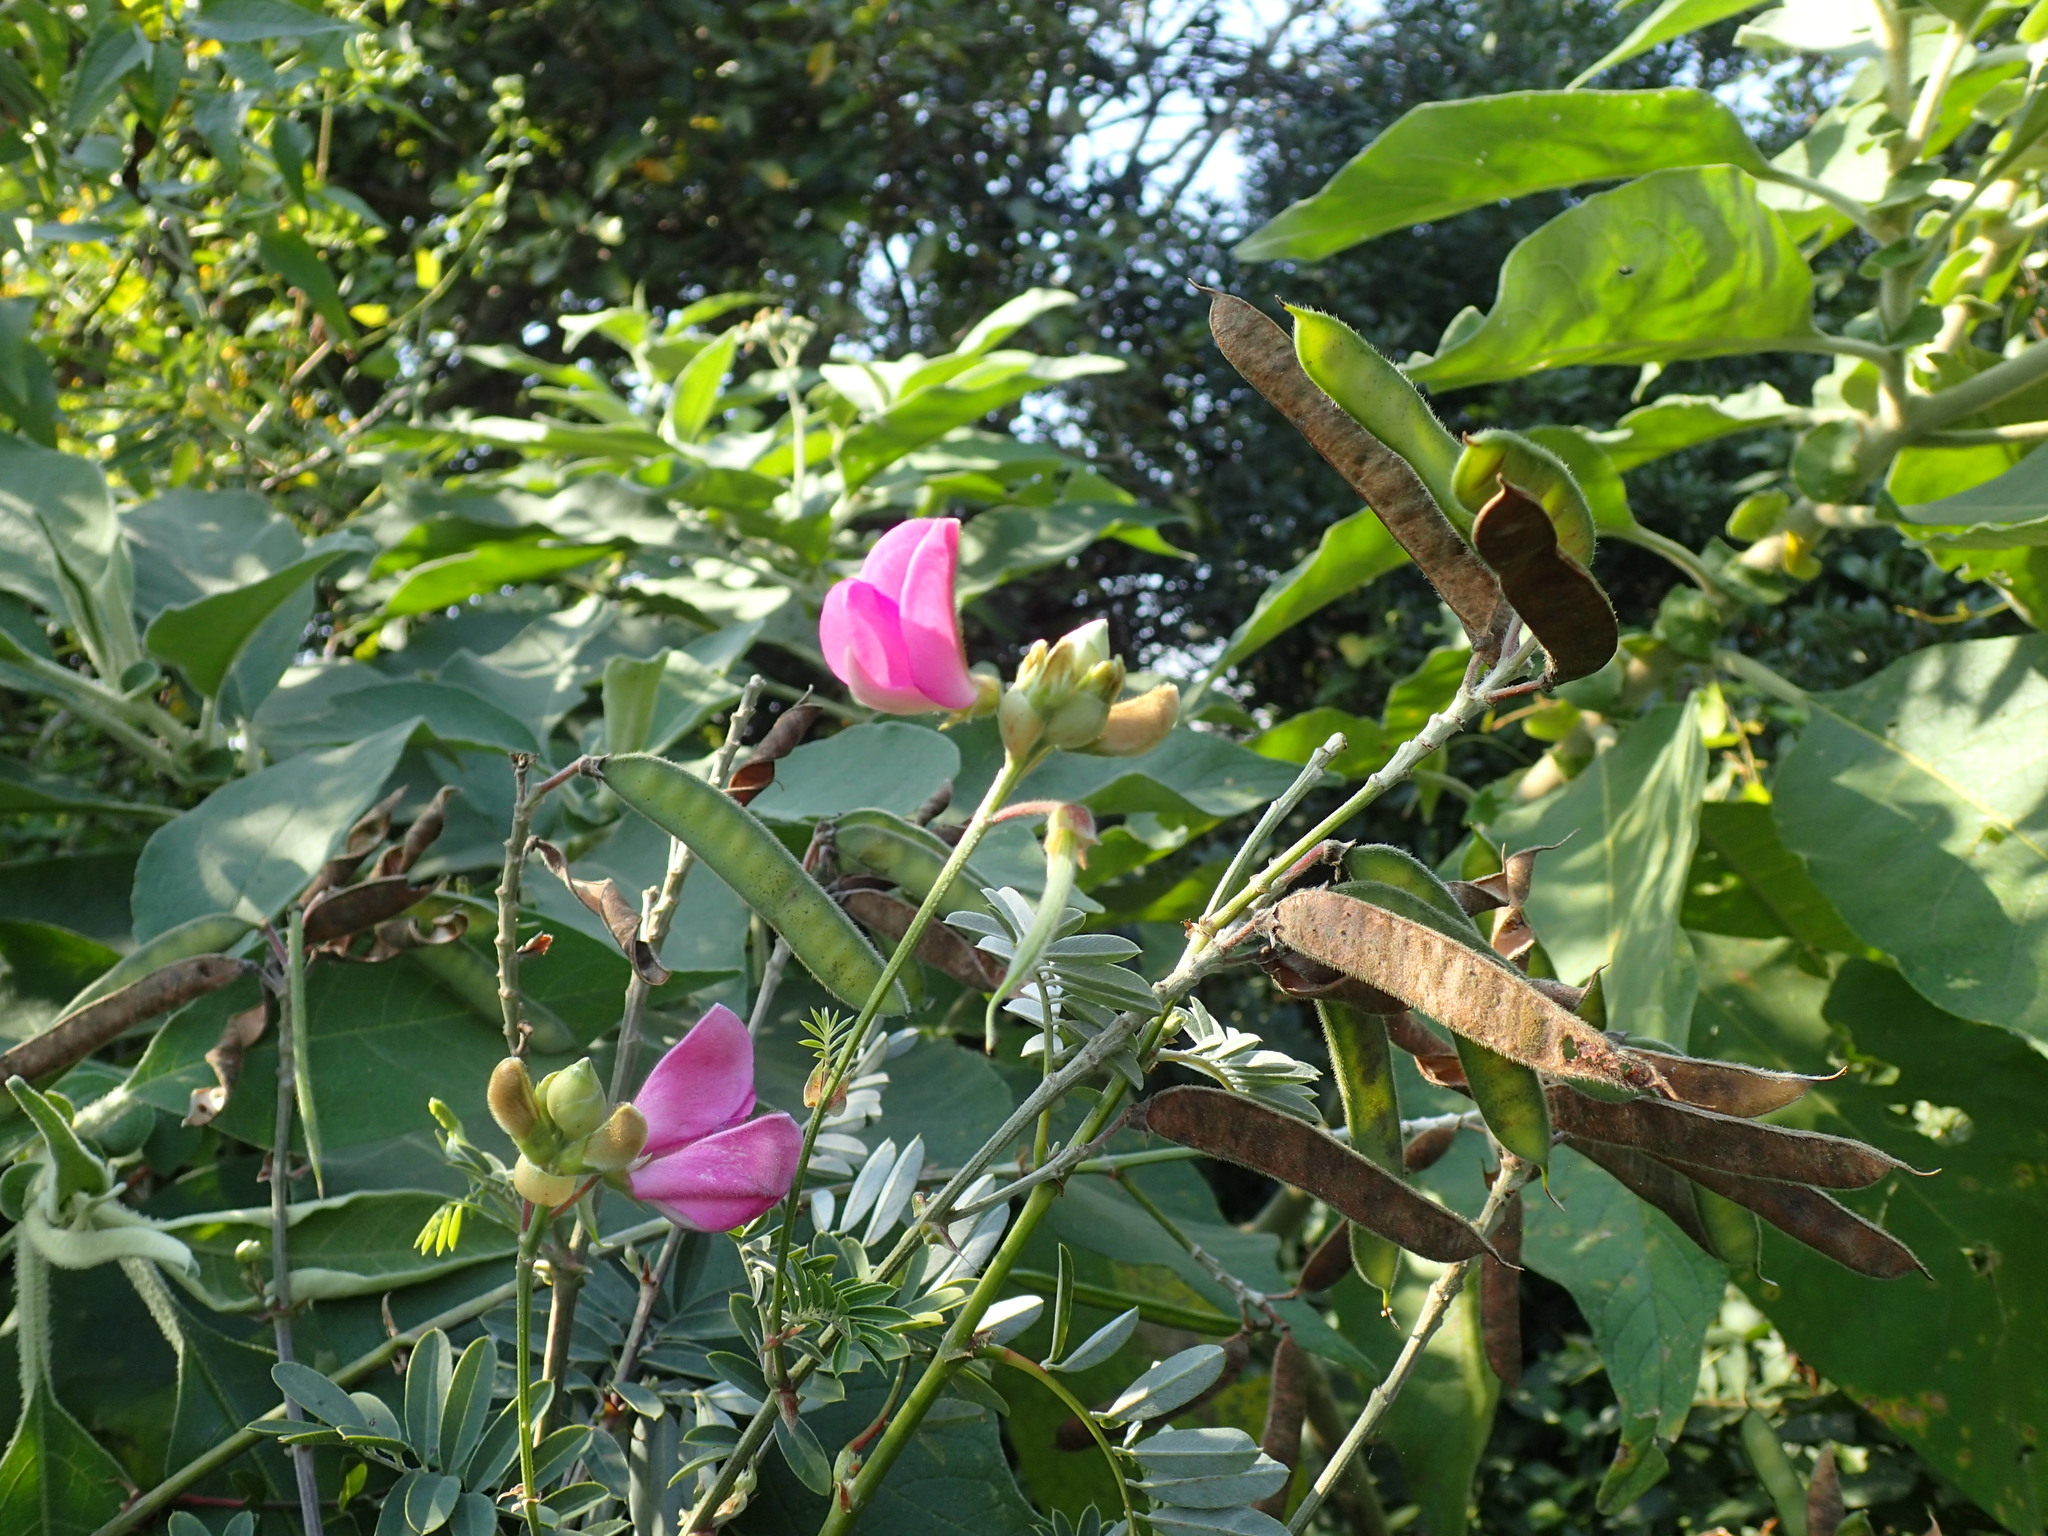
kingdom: Plantae
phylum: Tracheophyta
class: Magnoliopsida
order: Fabales
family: Fabaceae
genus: Tephrosia
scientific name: Tephrosia shiluwanensis
